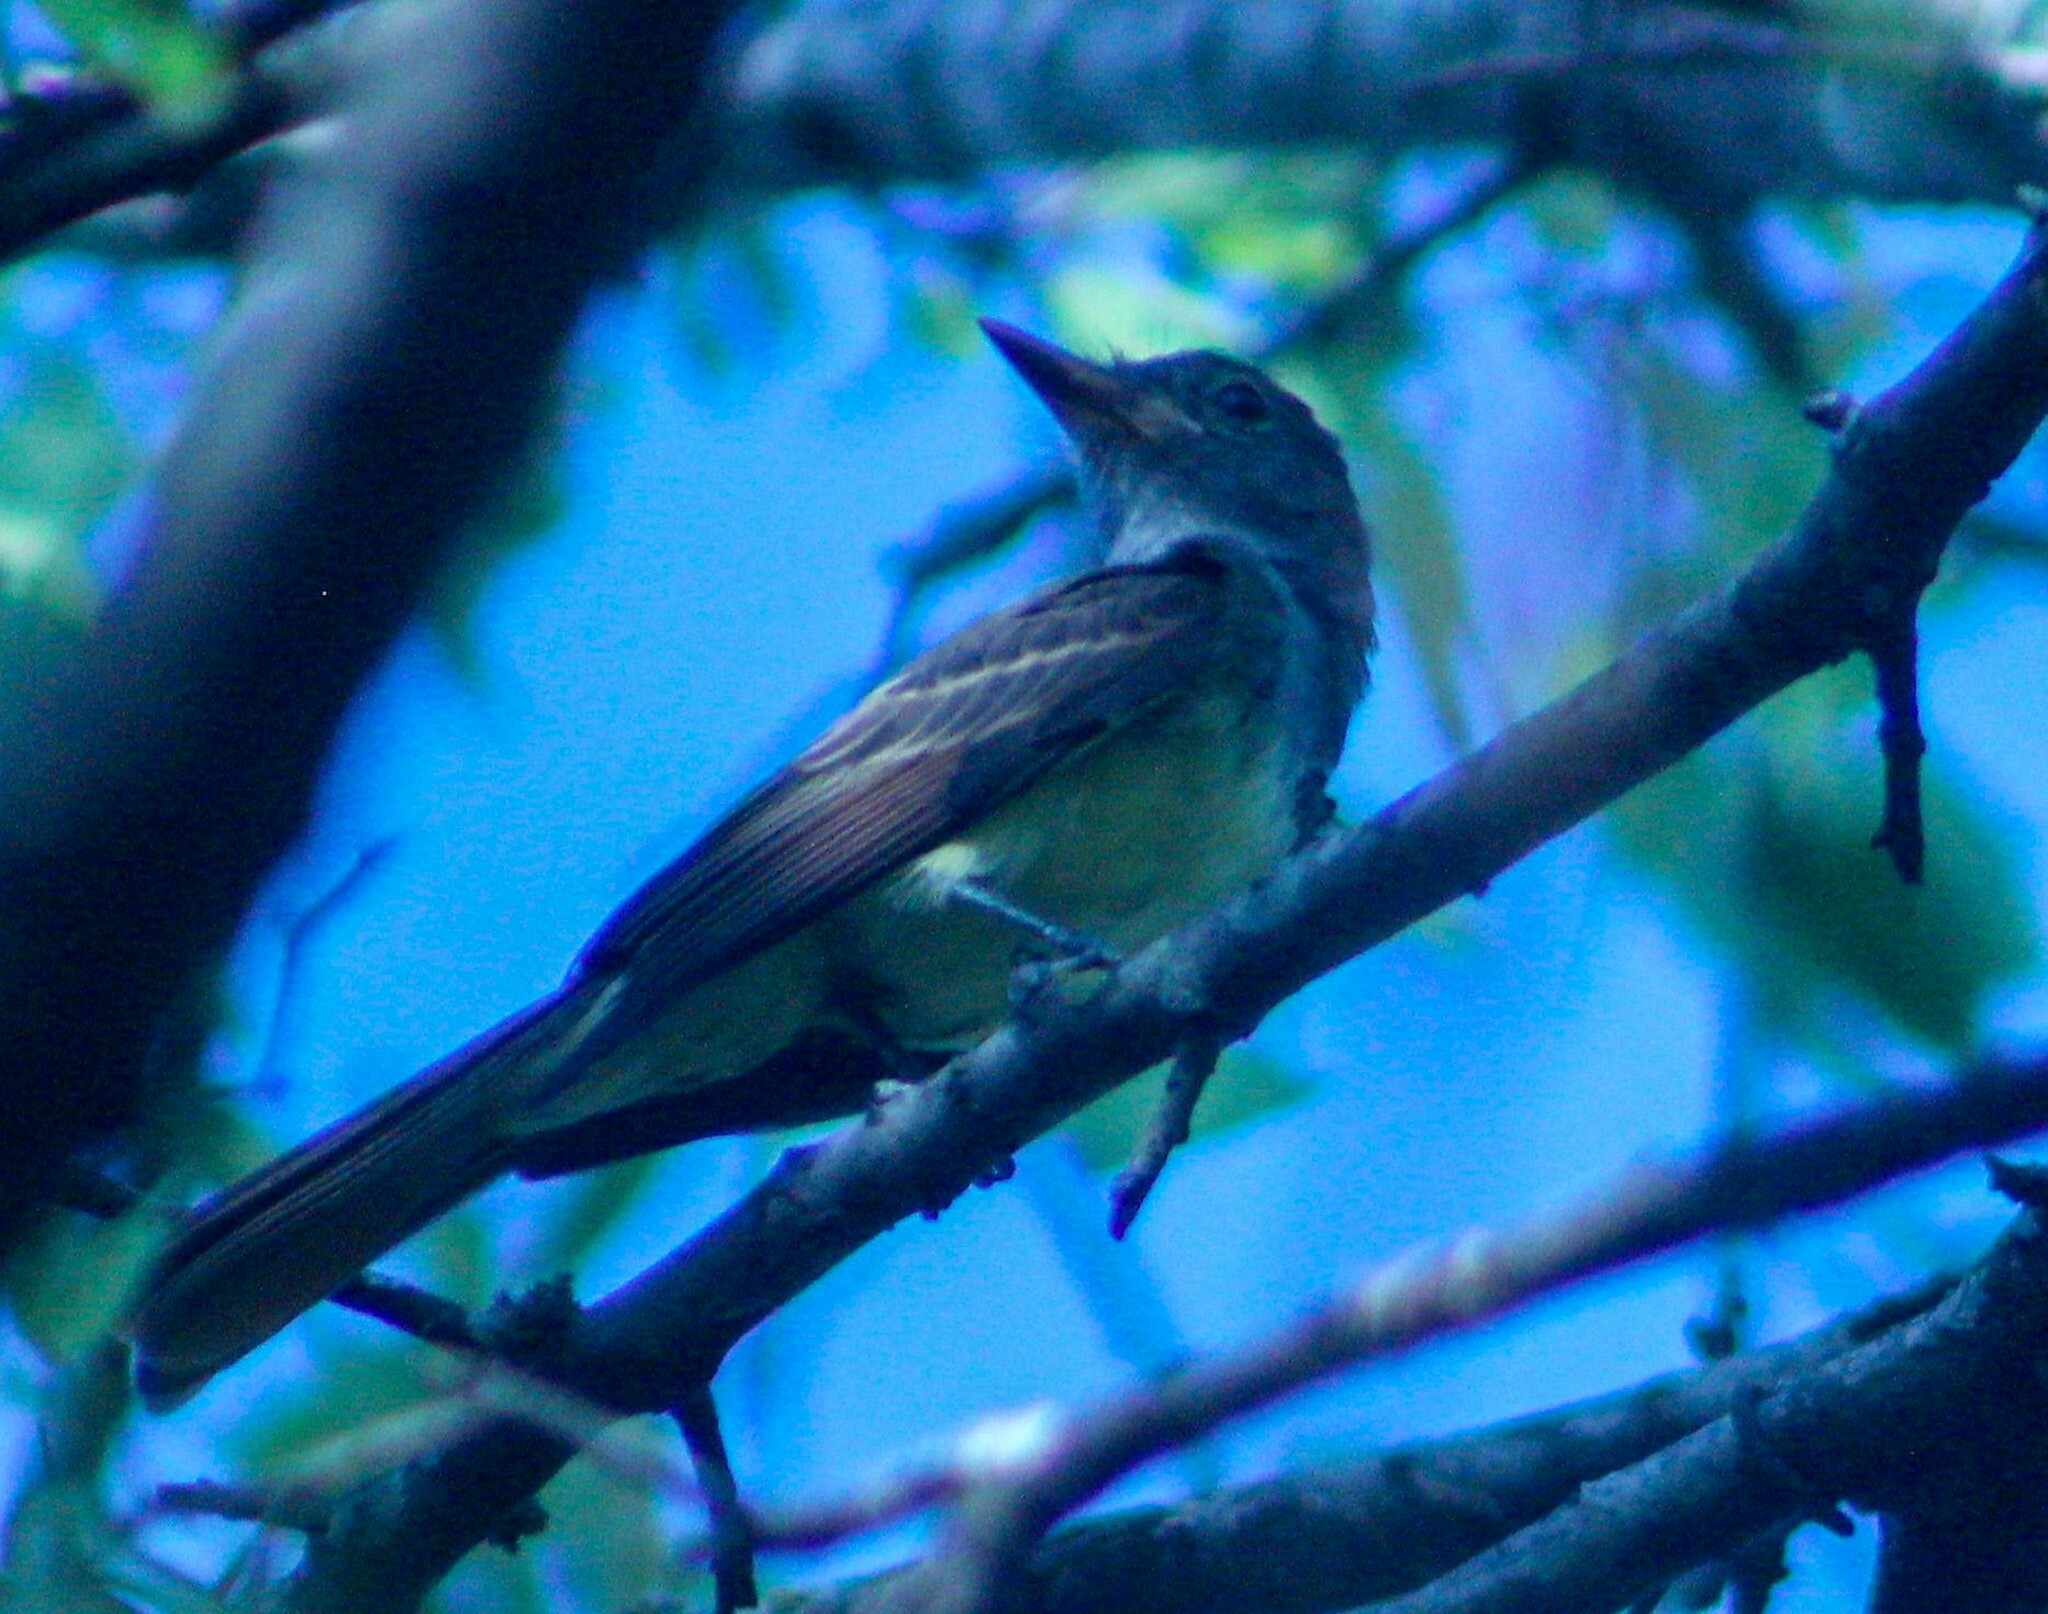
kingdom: Animalia
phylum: Chordata
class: Aves
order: Passeriformes
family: Tyrannidae
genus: Myiarchus
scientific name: Myiarchus crinitus
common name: Great crested flycatcher
